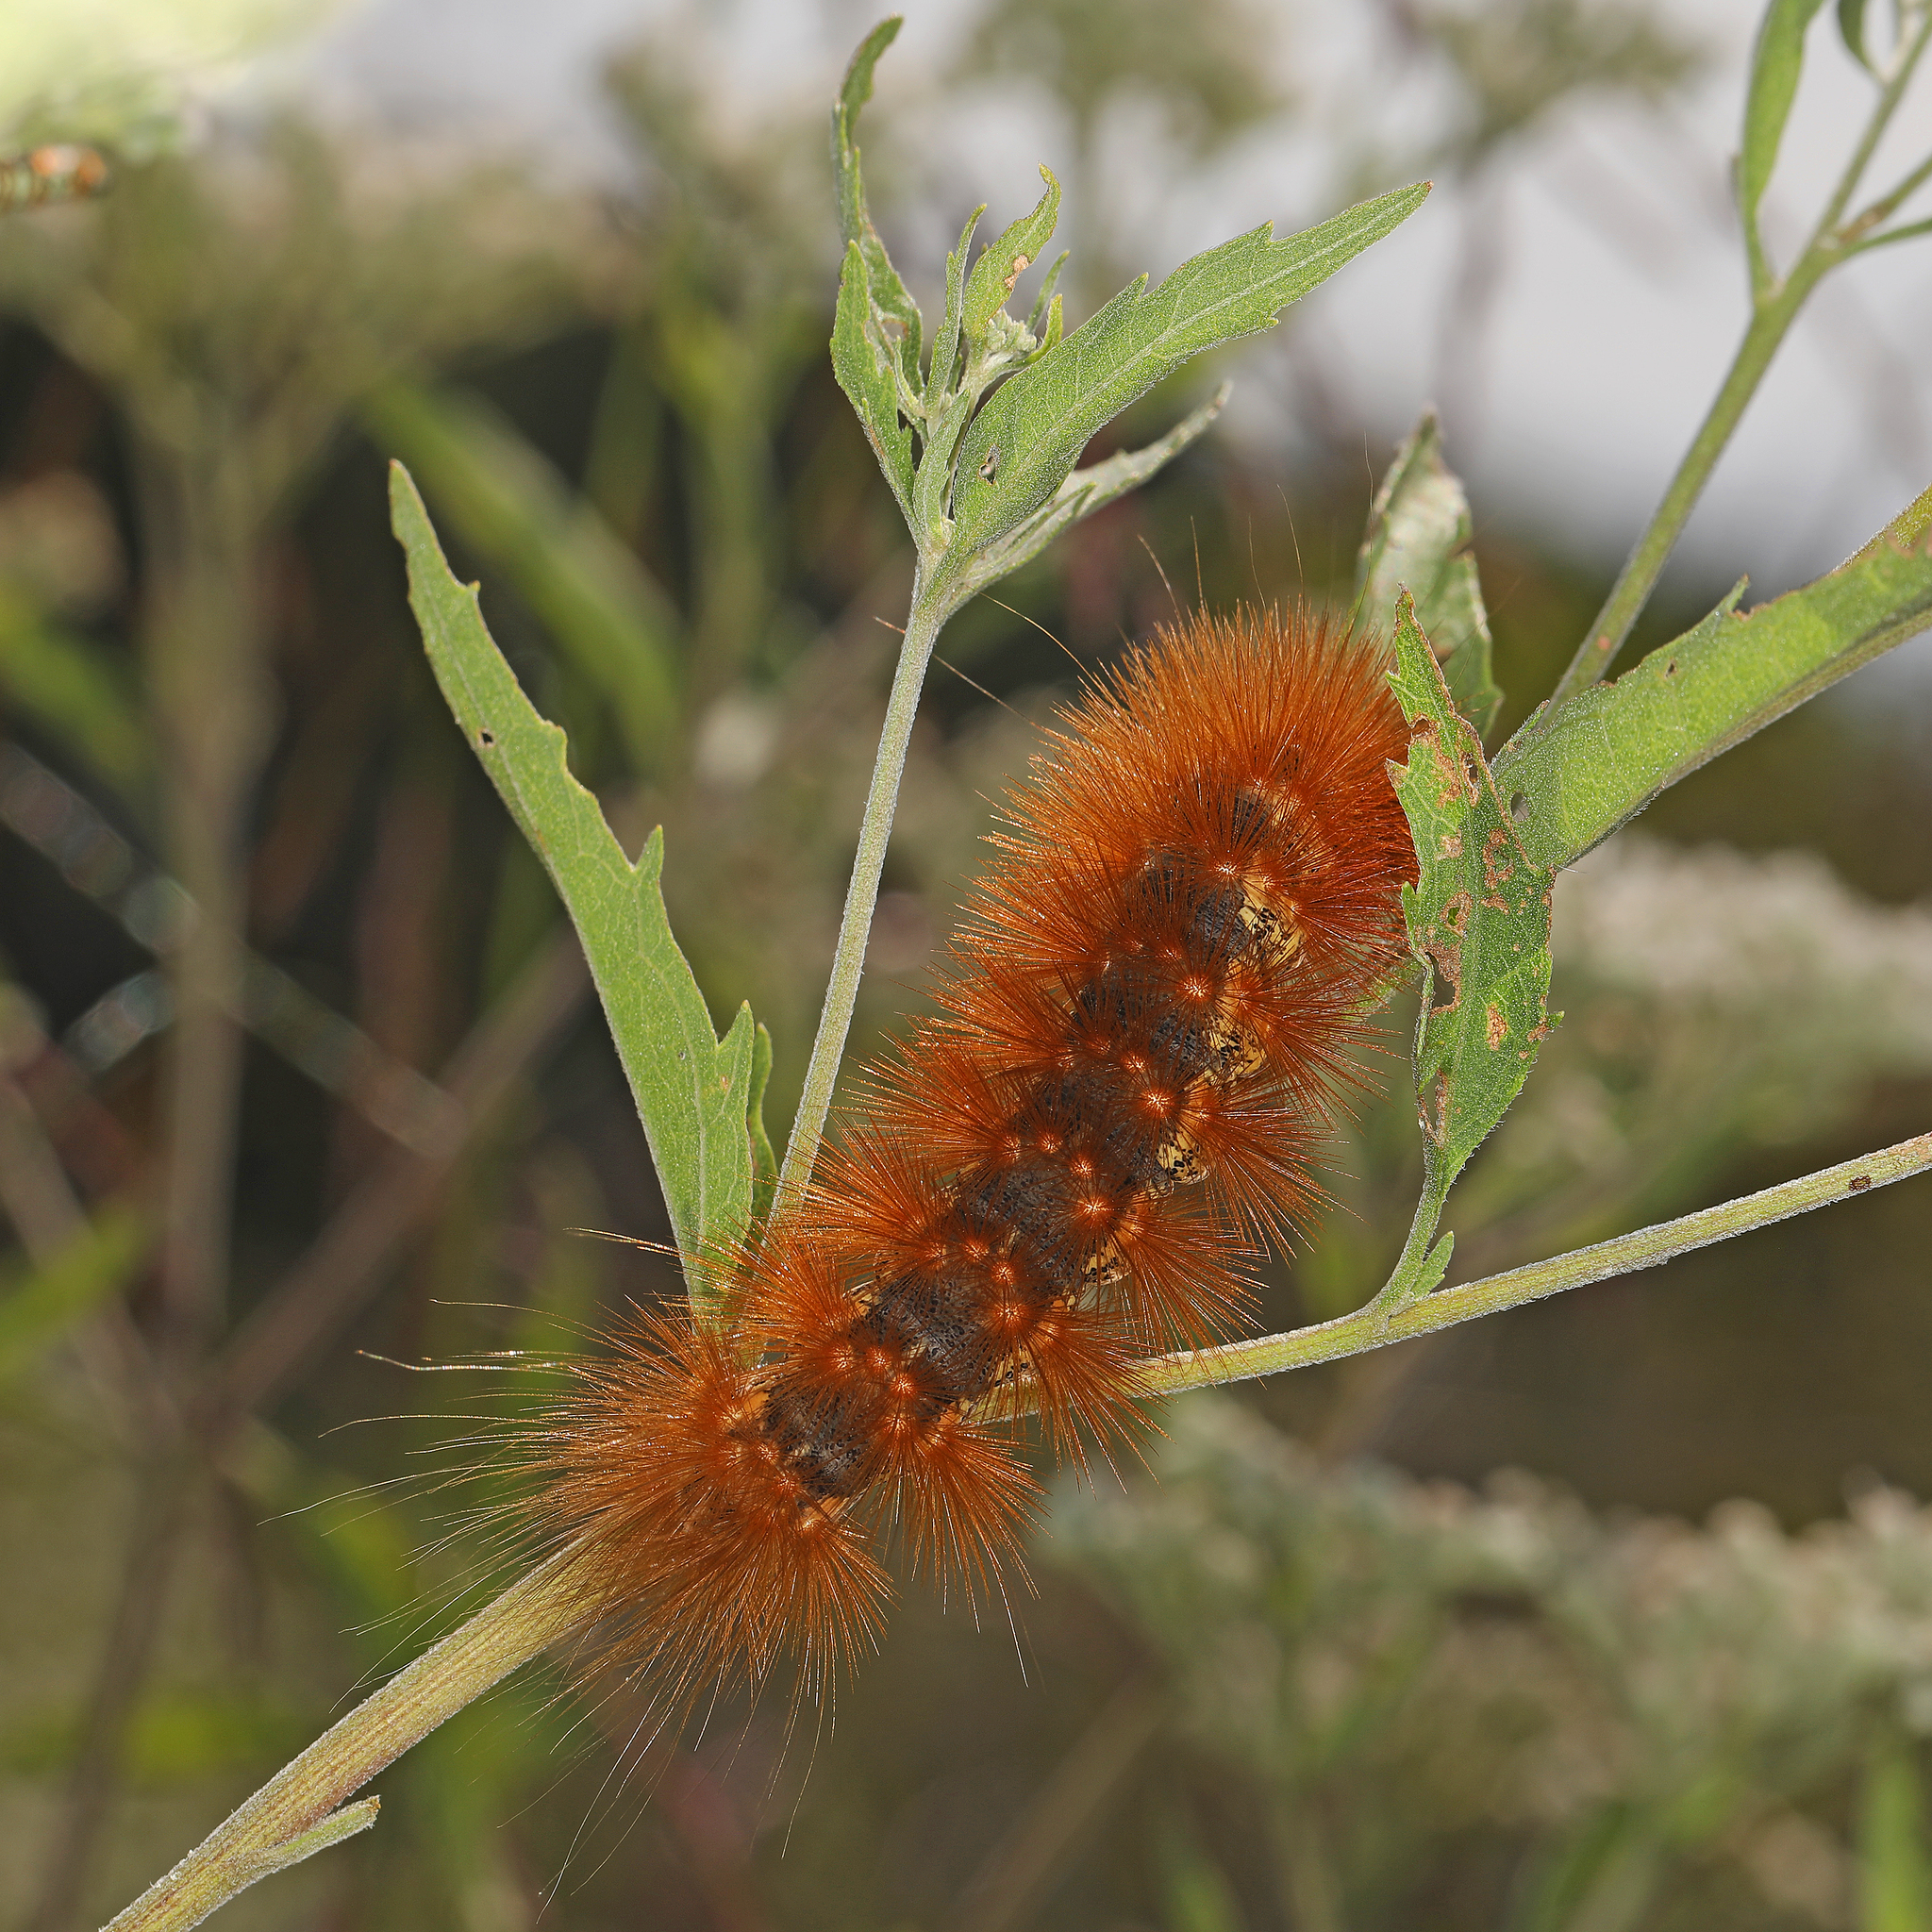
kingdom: Animalia
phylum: Arthropoda
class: Insecta
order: Lepidoptera
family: Erebidae
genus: Estigmene
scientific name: Estigmene acrea
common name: Salt marsh moth
